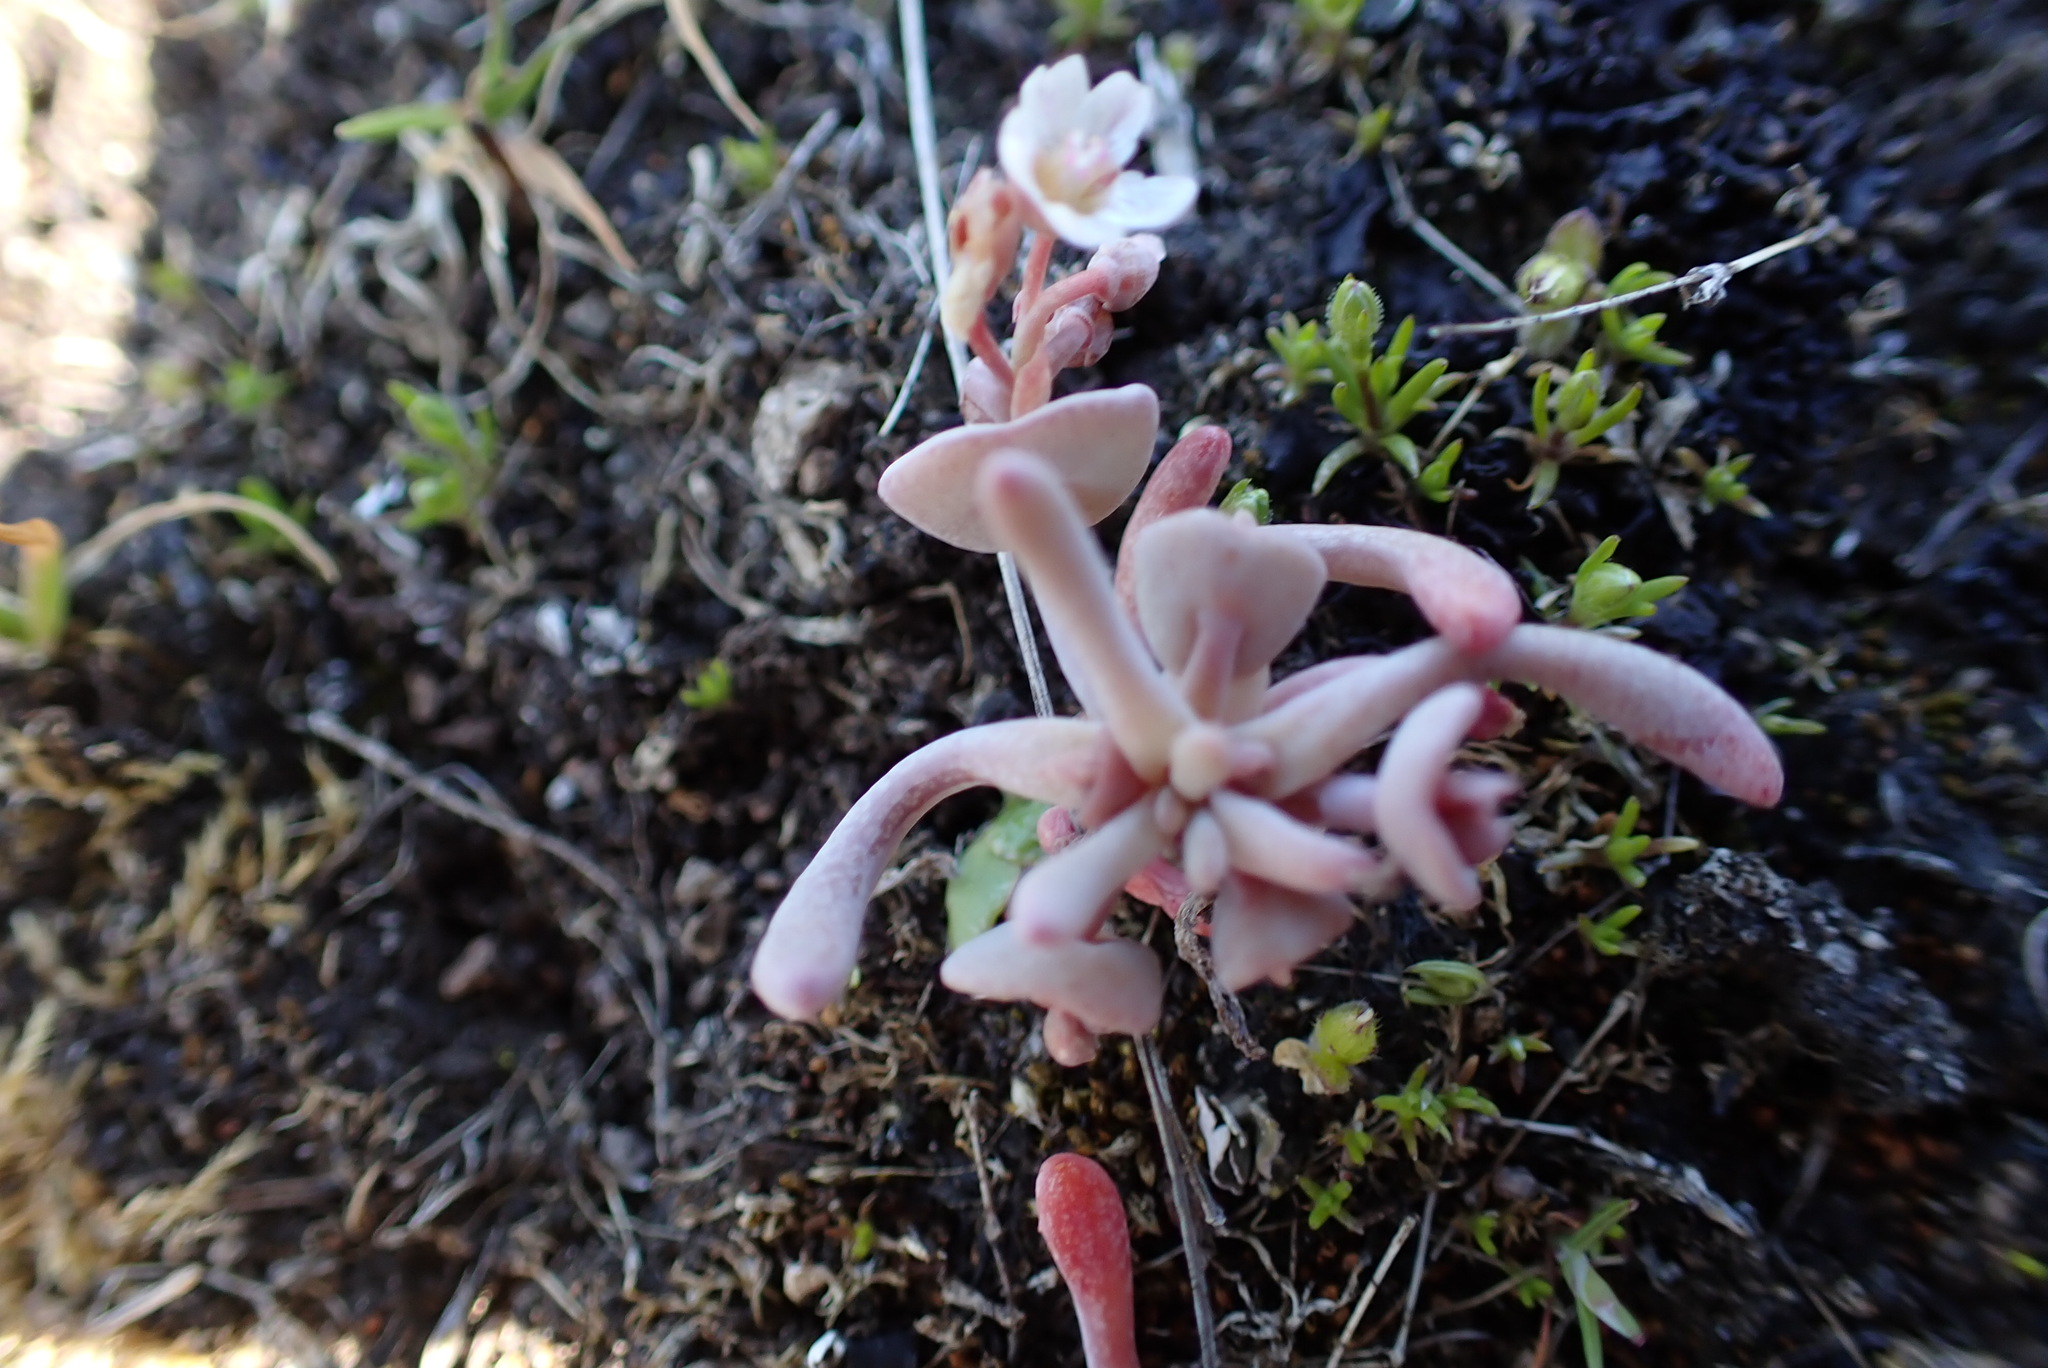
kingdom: Plantae
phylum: Tracheophyta
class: Magnoliopsida
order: Caryophyllales
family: Montiaceae
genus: Claytonia
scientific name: Claytonia exigua
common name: Pale spring beauty
